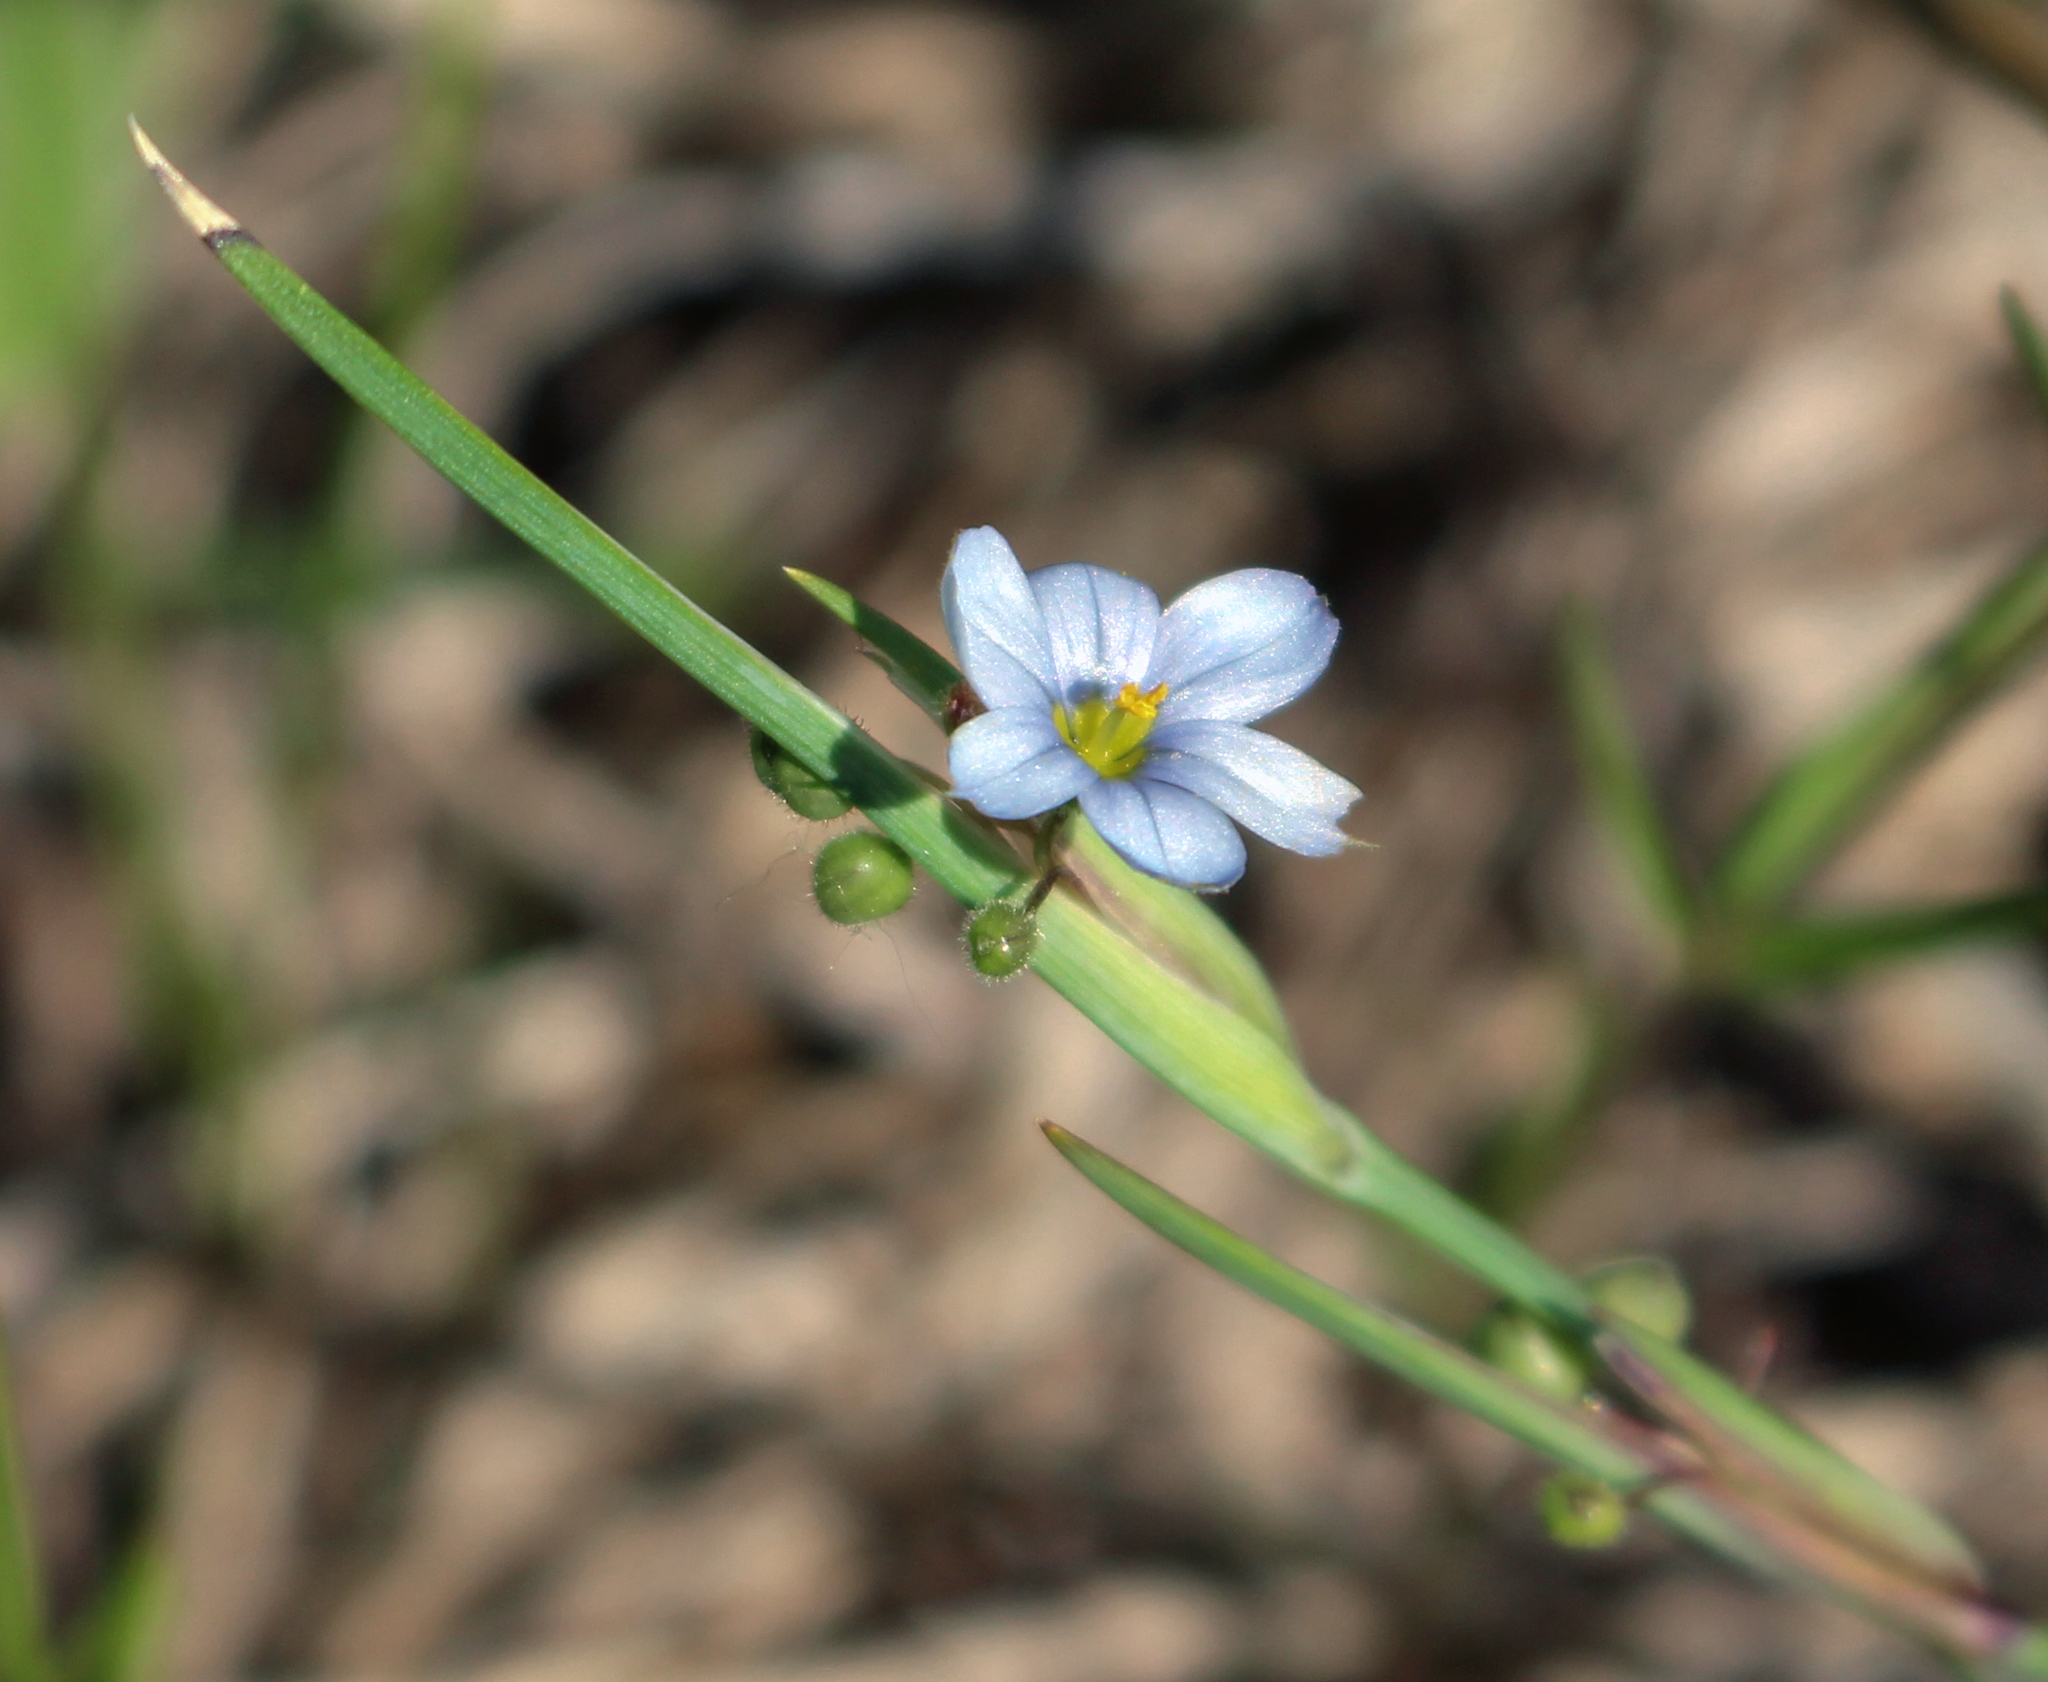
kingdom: Plantae
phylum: Tracheophyta
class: Liliopsida
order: Asparagales
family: Iridaceae
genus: Sisyrinchium
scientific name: Sisyrinchium campestre
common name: Prairie blue-eyed-grass
